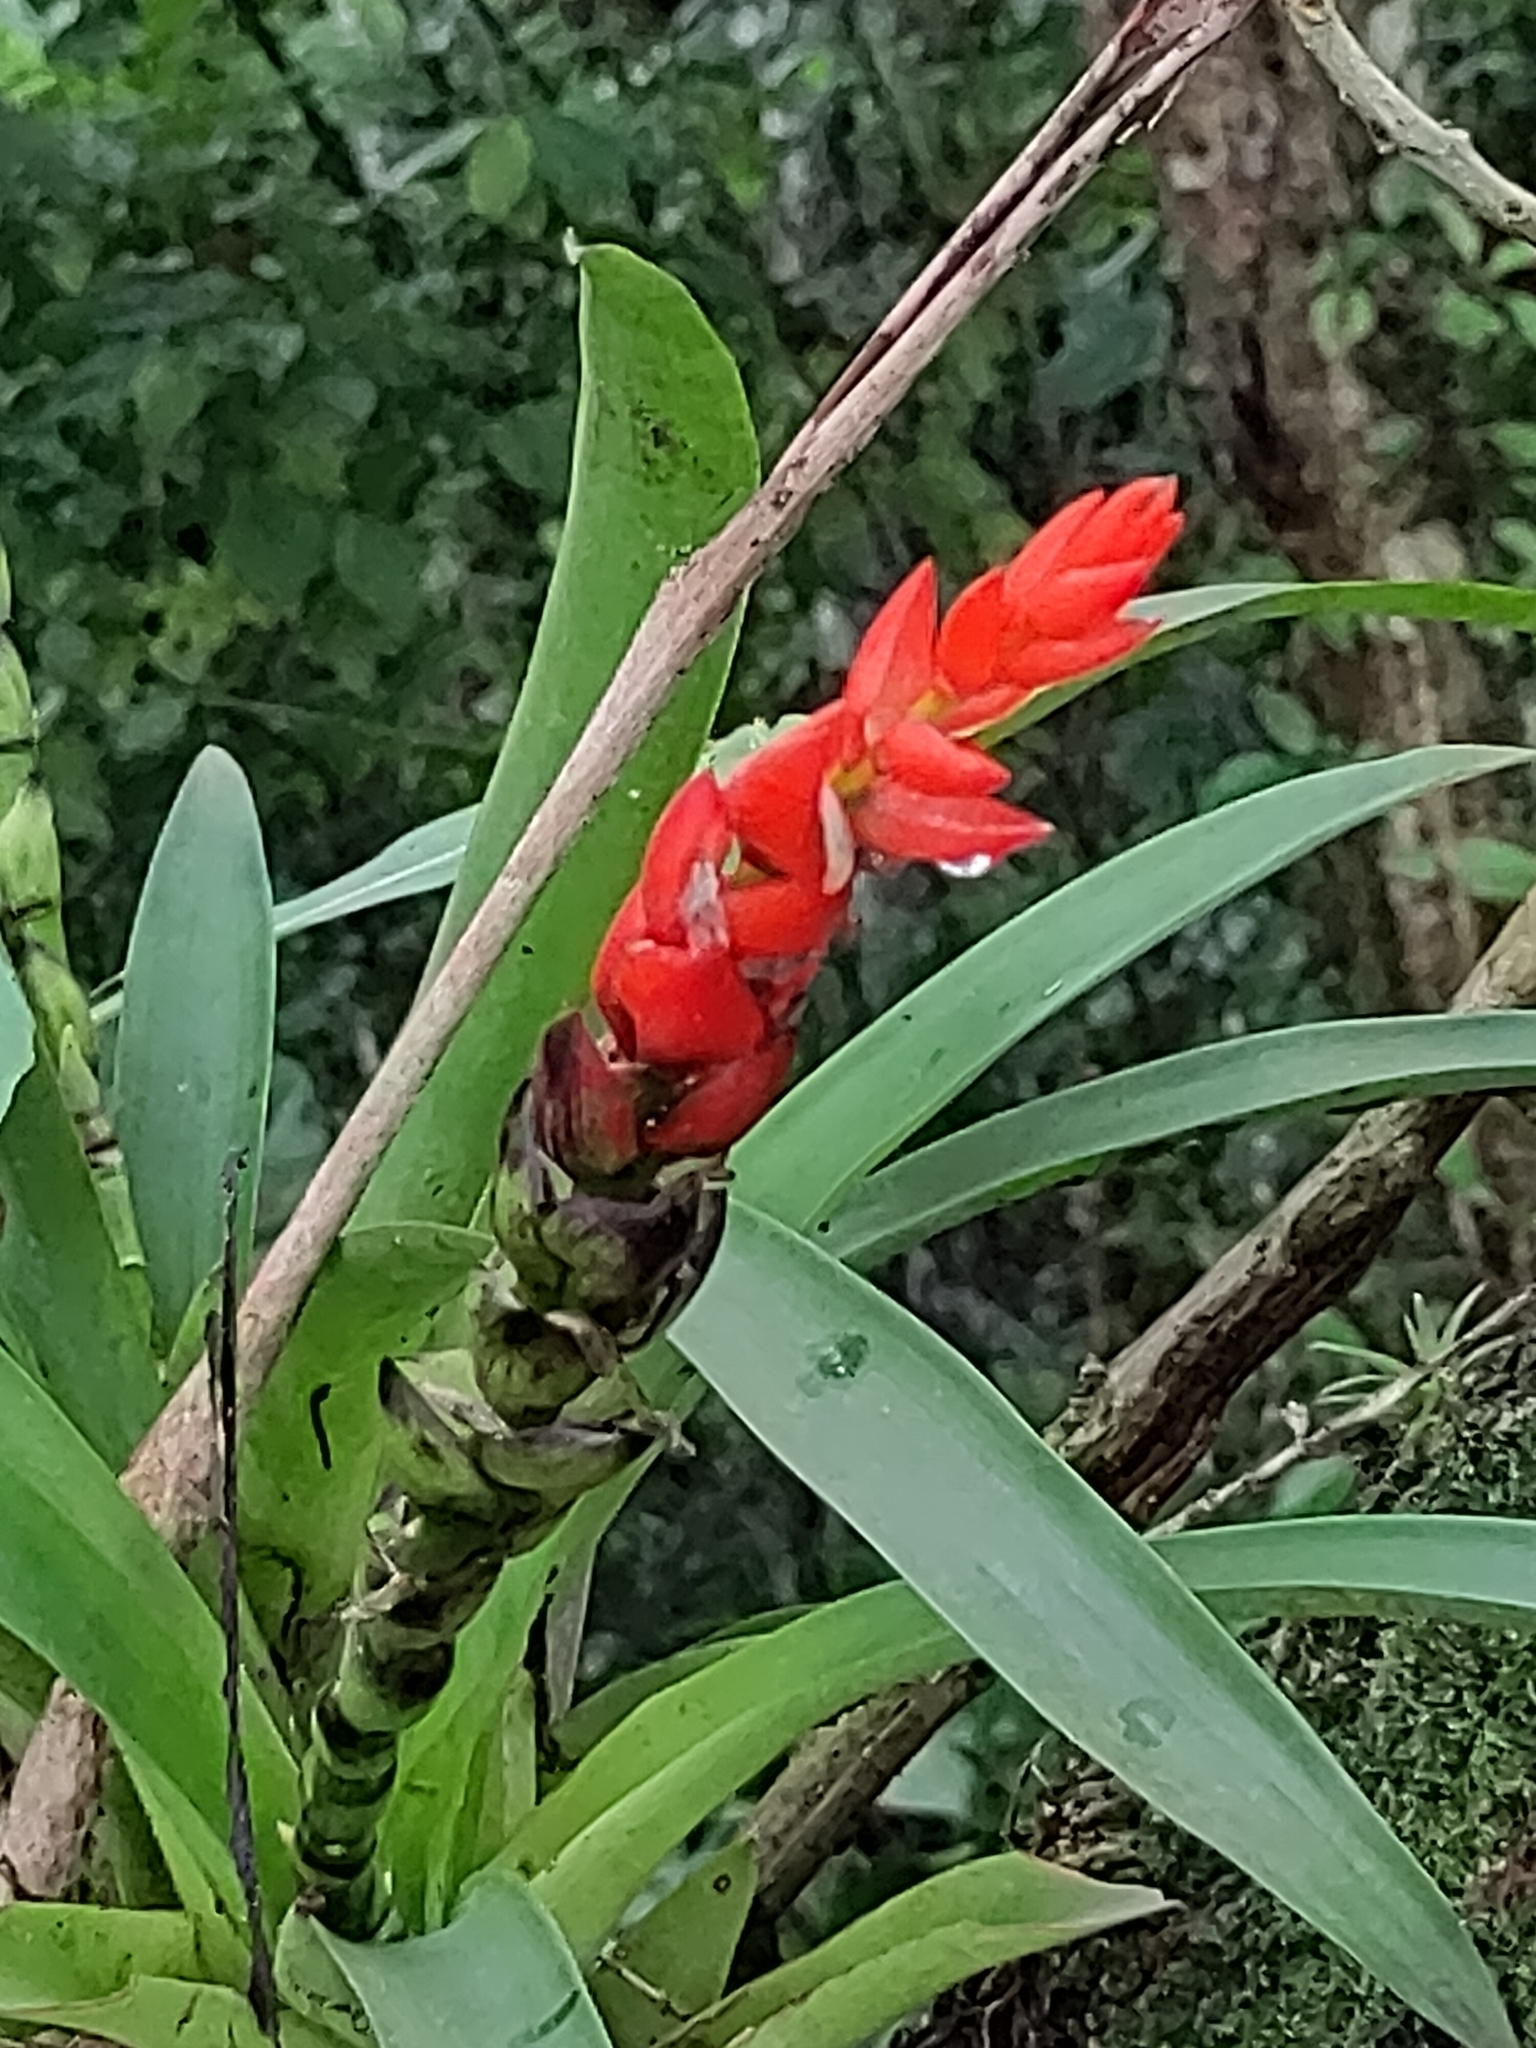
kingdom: Plantae
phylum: Tracheophyta
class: Liliopsida
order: Poales
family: Bromeliaceae
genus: Guzmania
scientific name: Guzmania monostachia
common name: West indian tufted airplant
